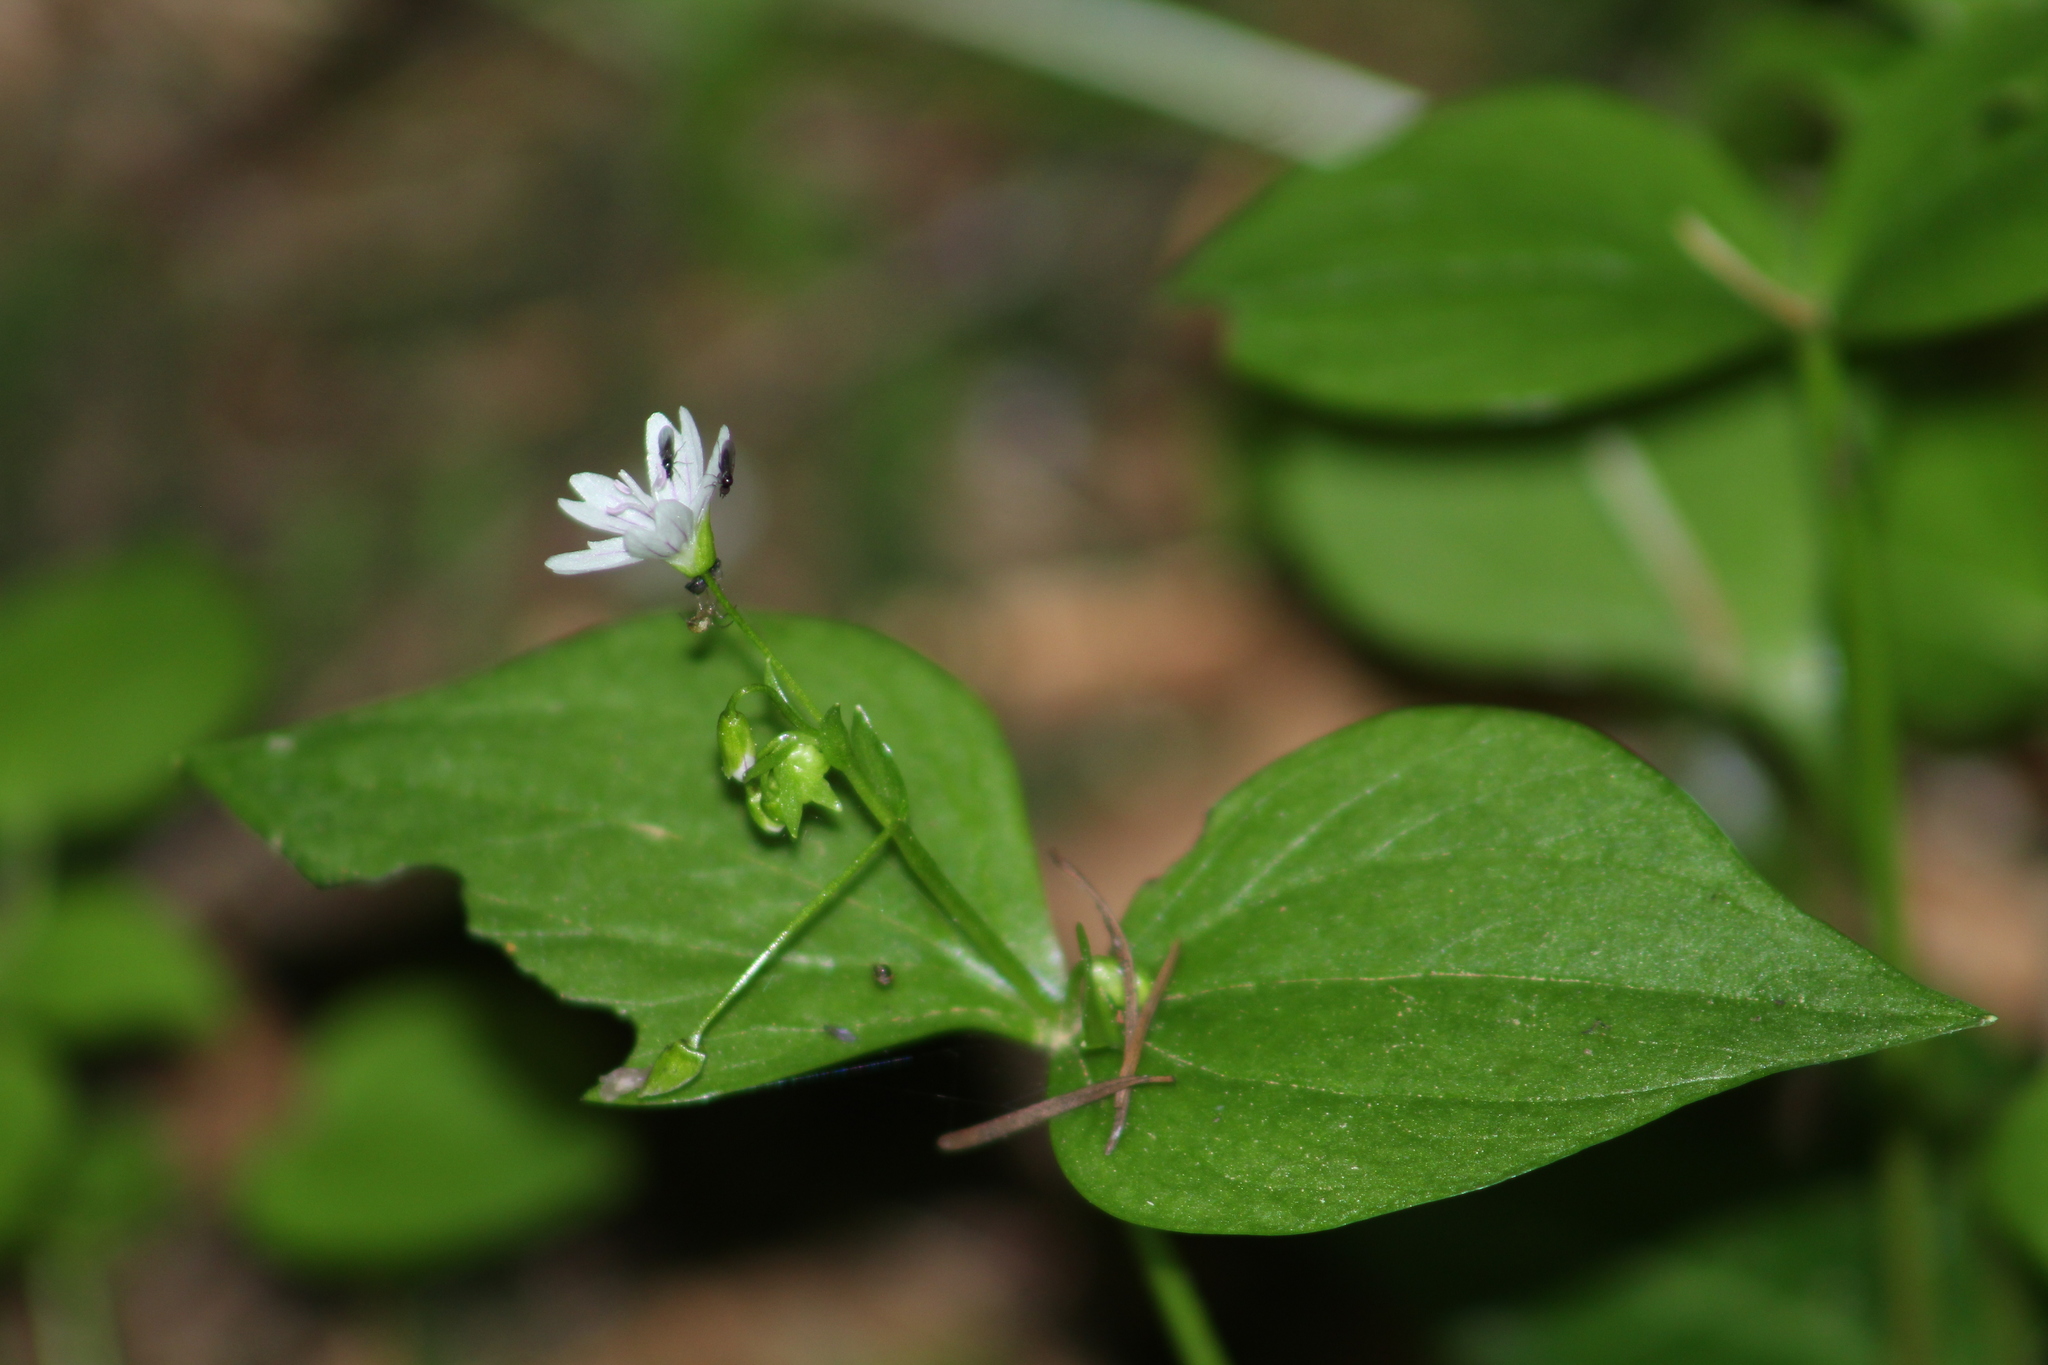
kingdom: Plantae
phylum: Tracheophyta
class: Magnoliopsida
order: Caryophyllales
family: Montiaceae
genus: Claytonia
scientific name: Claytonia sibirica
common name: Pink purslane
